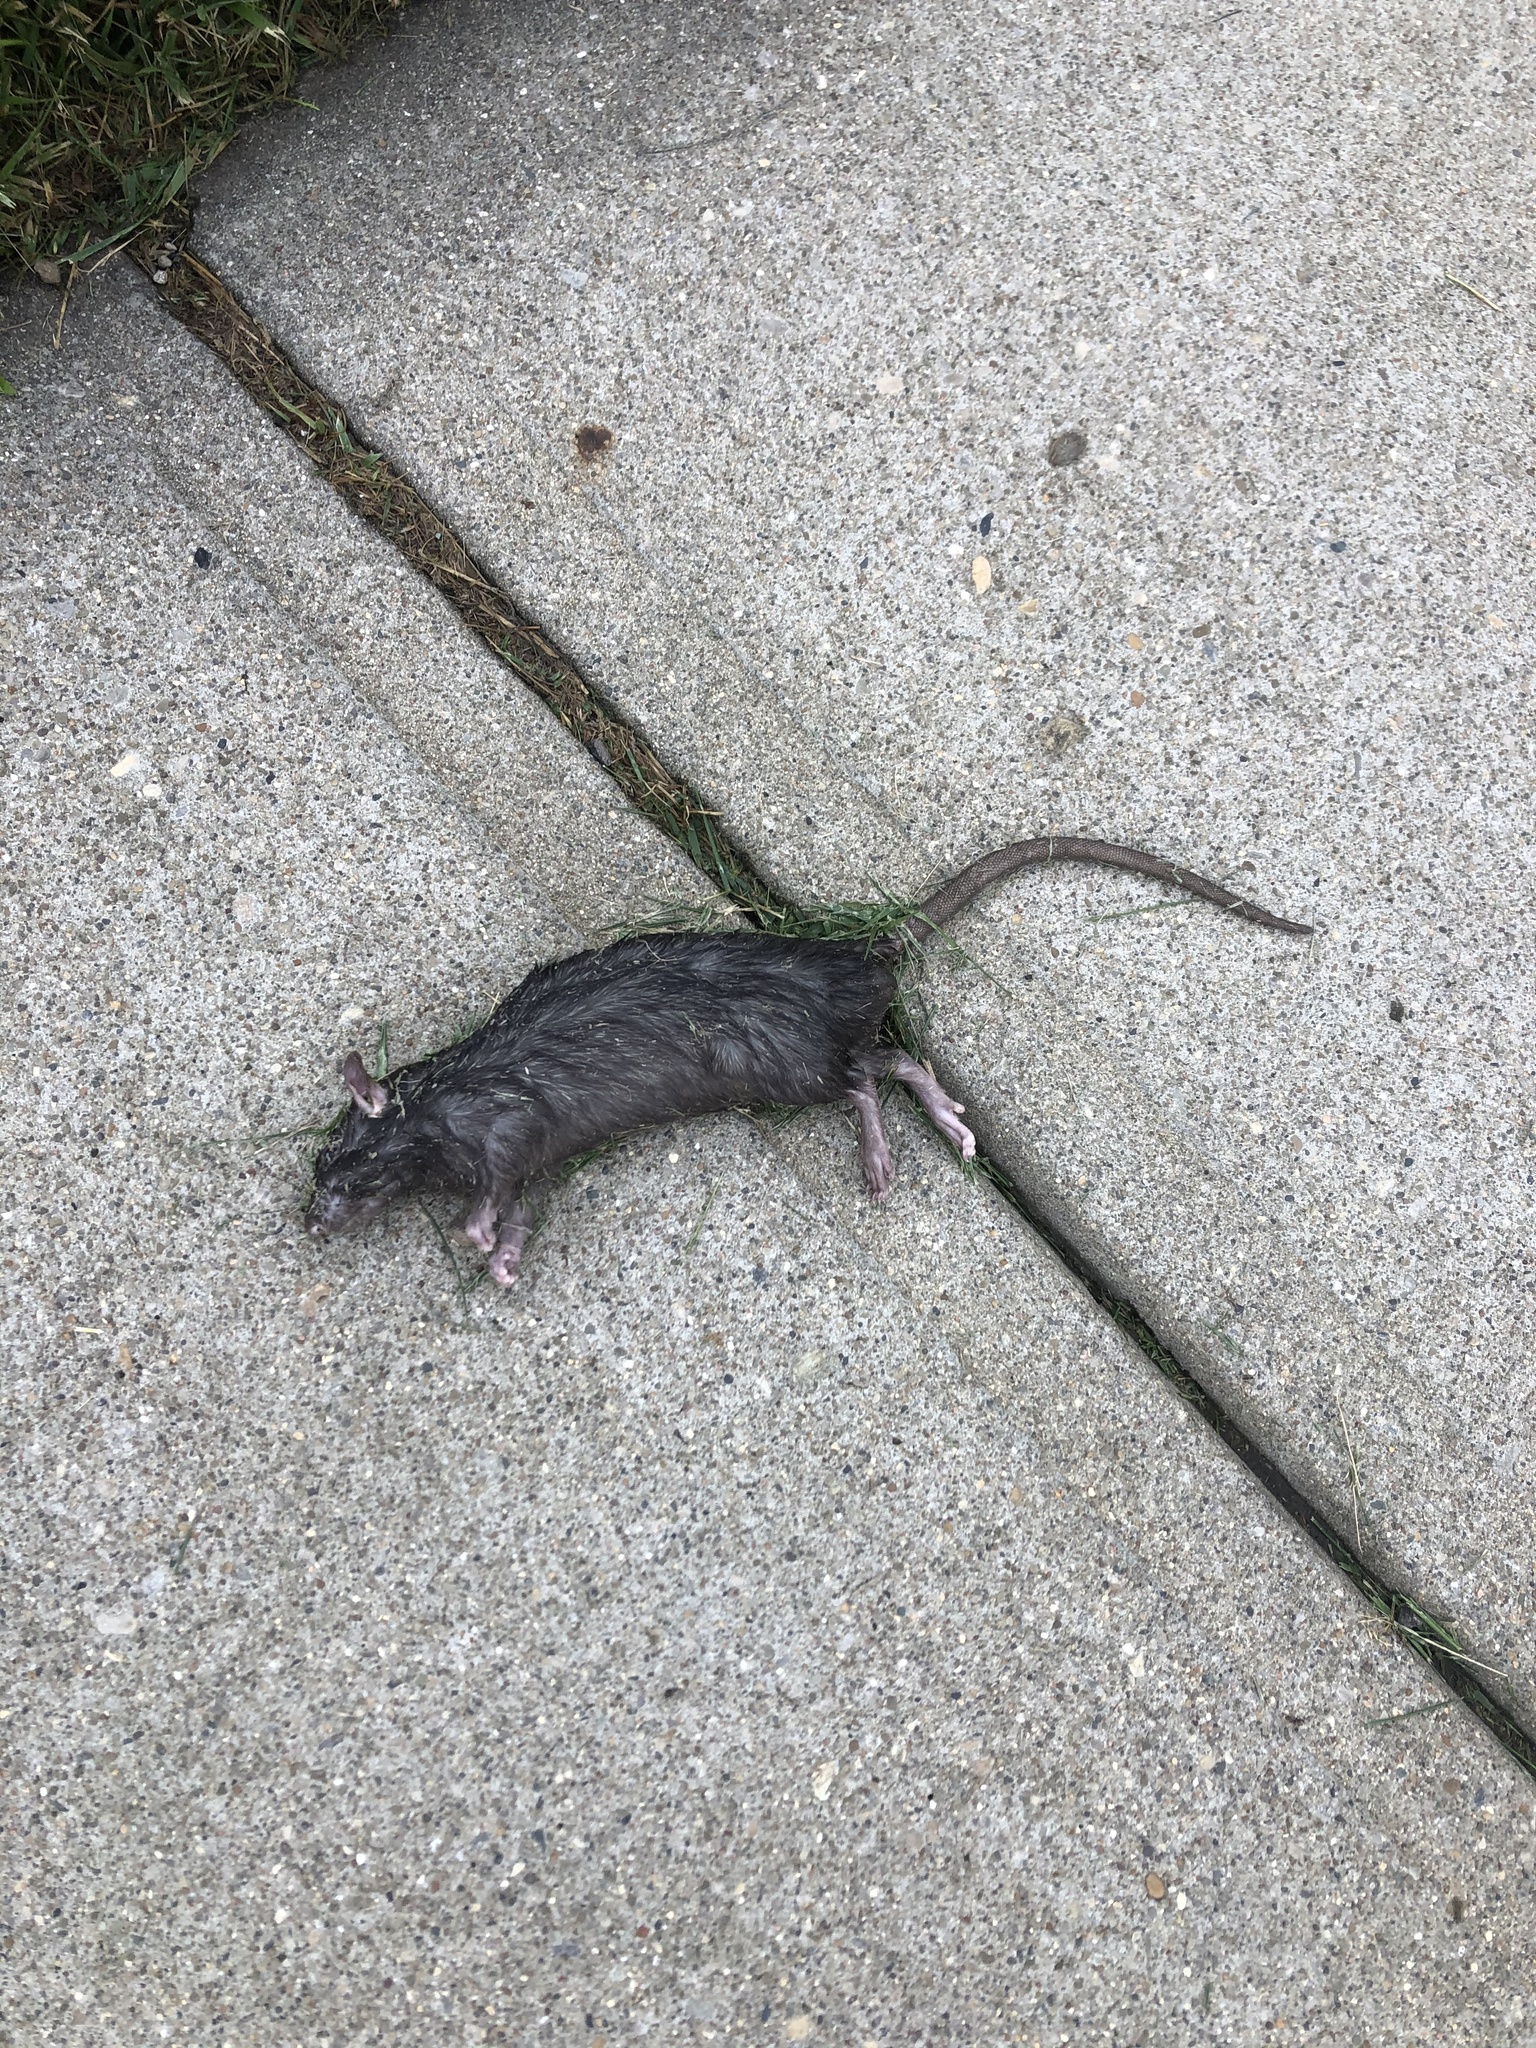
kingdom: Animalia
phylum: Chordata
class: Mammalia
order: Rodentia
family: Muridae
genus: Rattus
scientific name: Rattus norvegicus
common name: Brown rat
